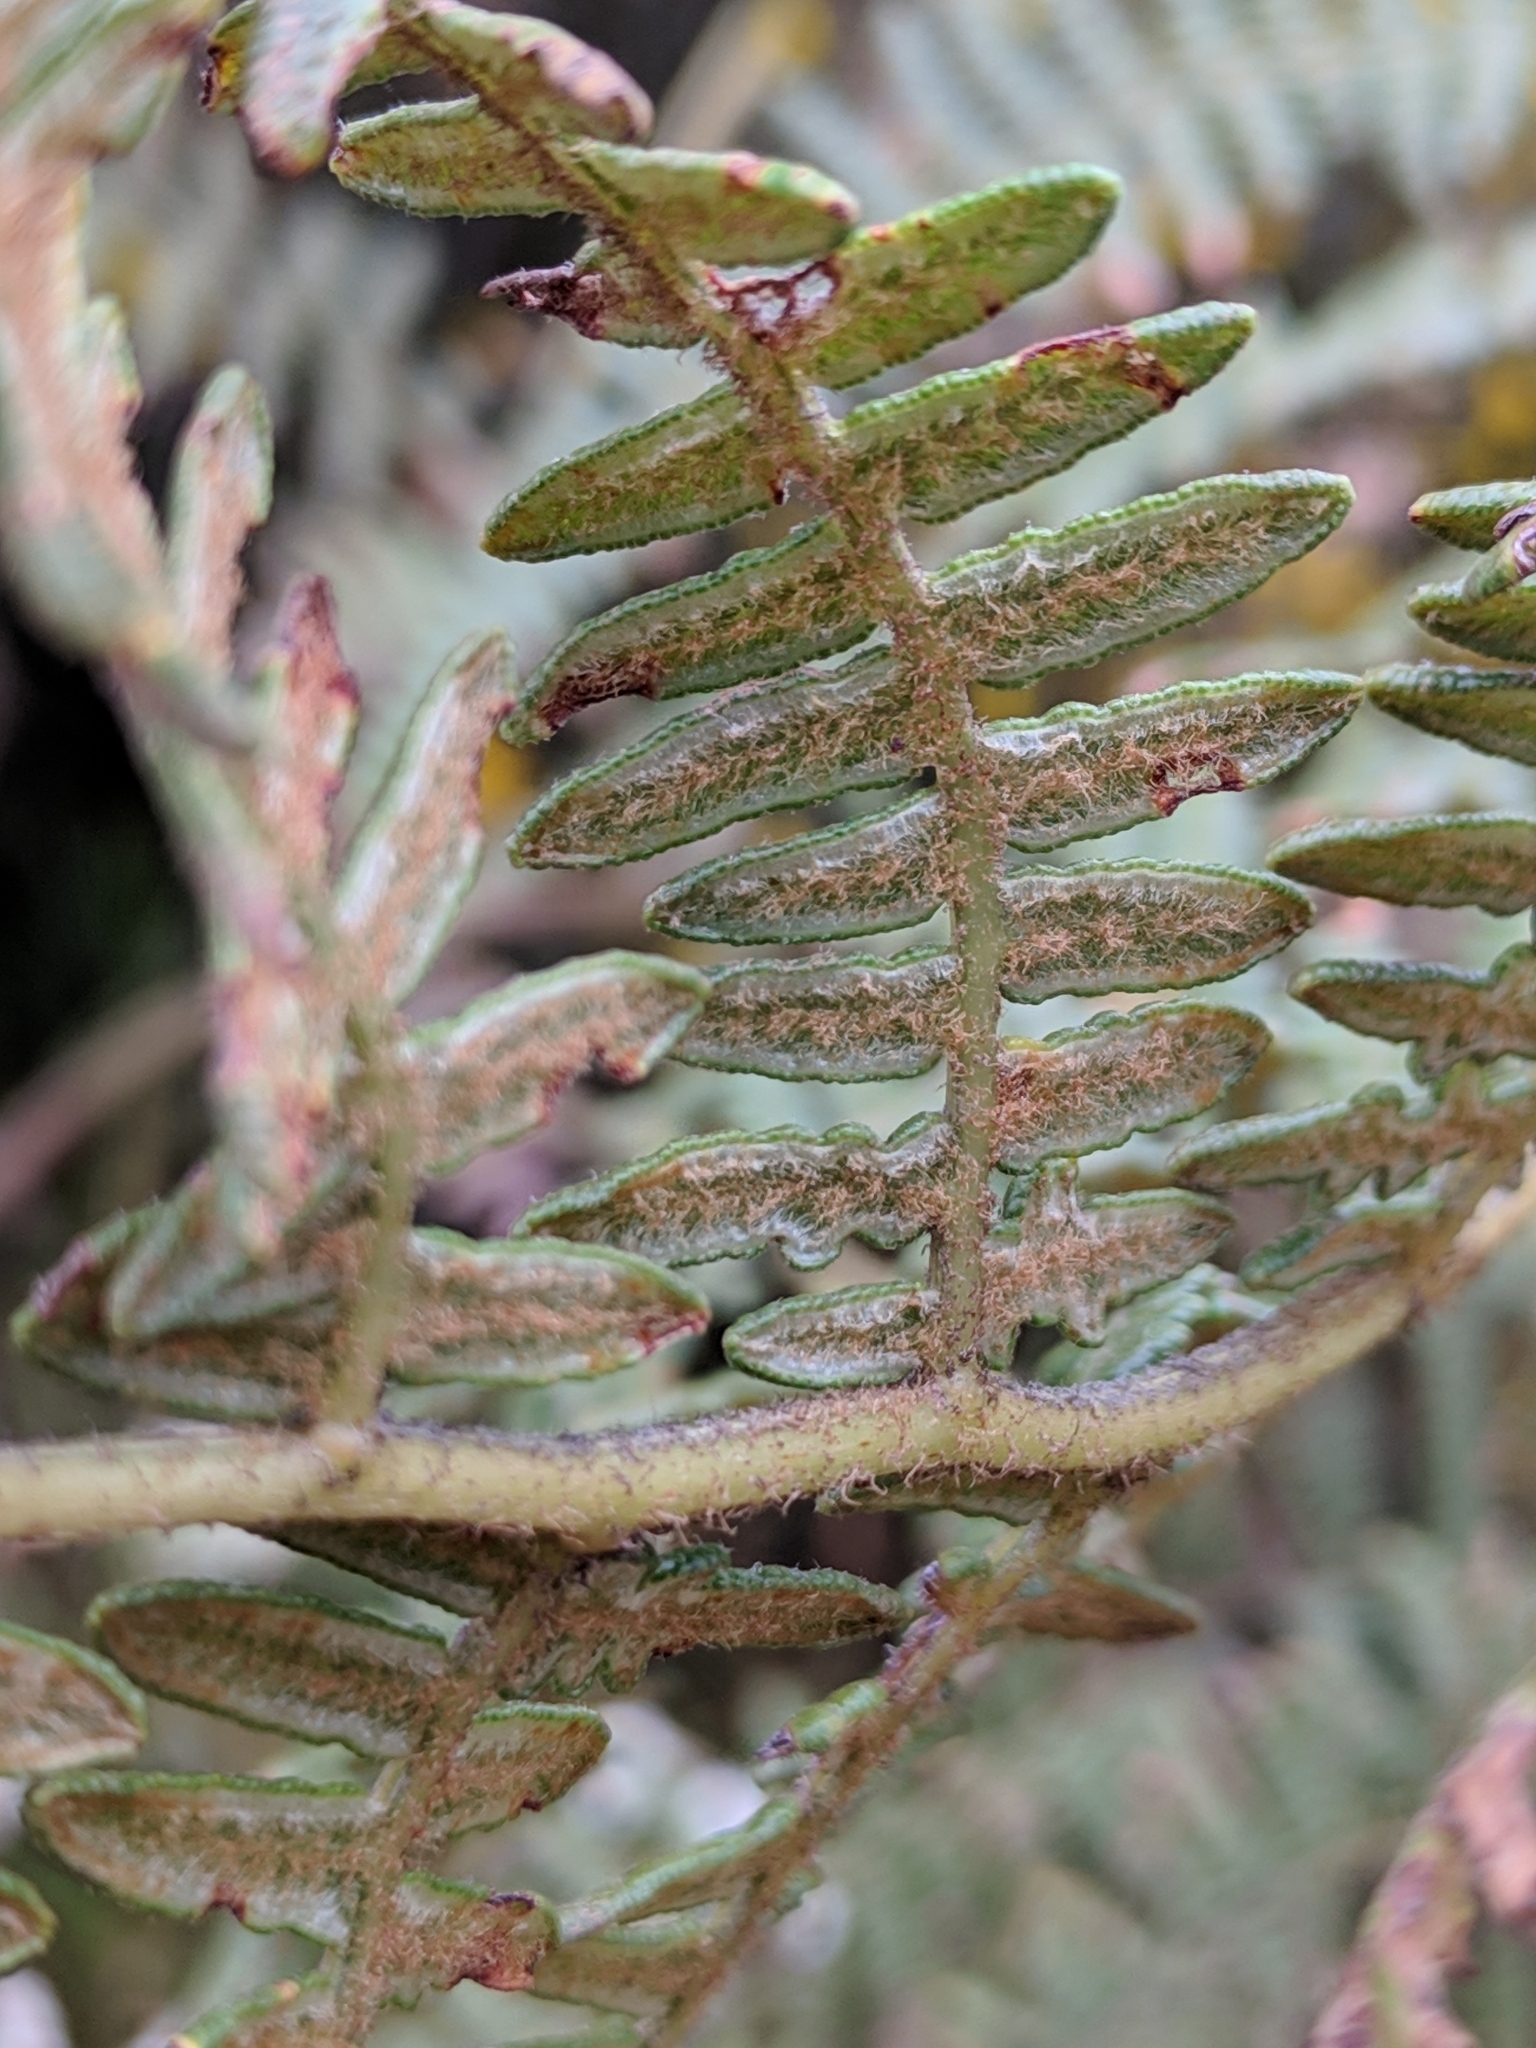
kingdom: Plantae
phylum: Tracheophyta
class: Polypodiopsida
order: Polypodiales
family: Dennstaedtiaceae
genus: Pteridium
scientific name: Pteridium aquilinum
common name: Bracken
